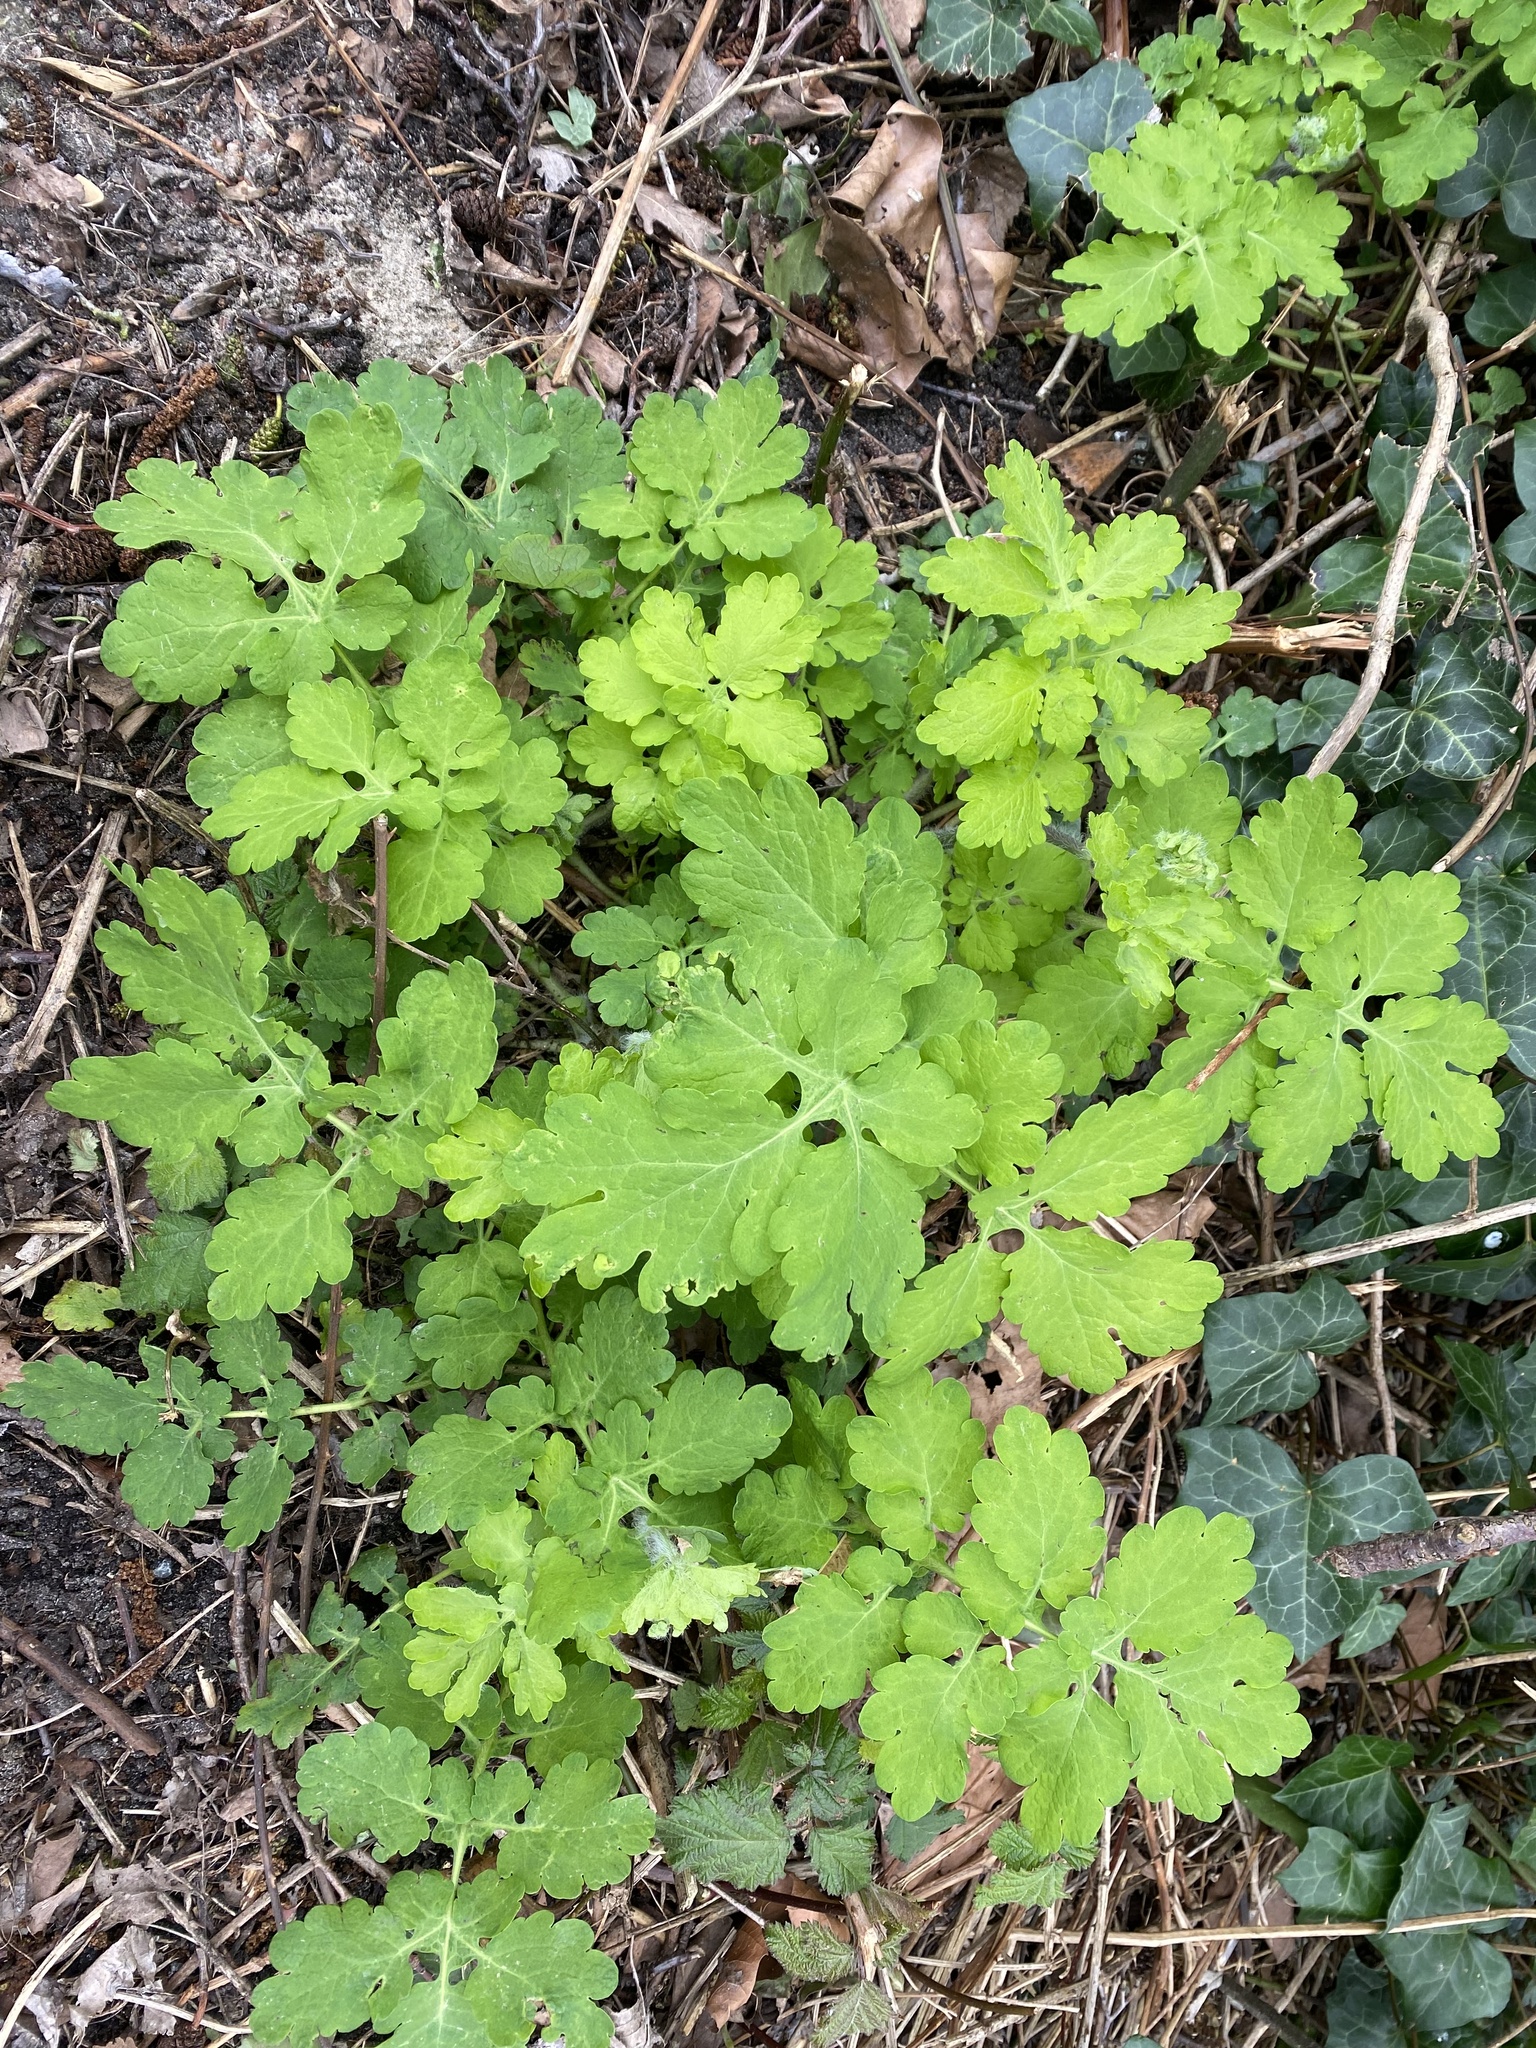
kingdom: Plantae
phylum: Tracheophyta
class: Magnoliopsida
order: Ranunculales
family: Papaveraceae
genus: Chelidonium
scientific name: Chelidonium majus
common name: Greater celandine
